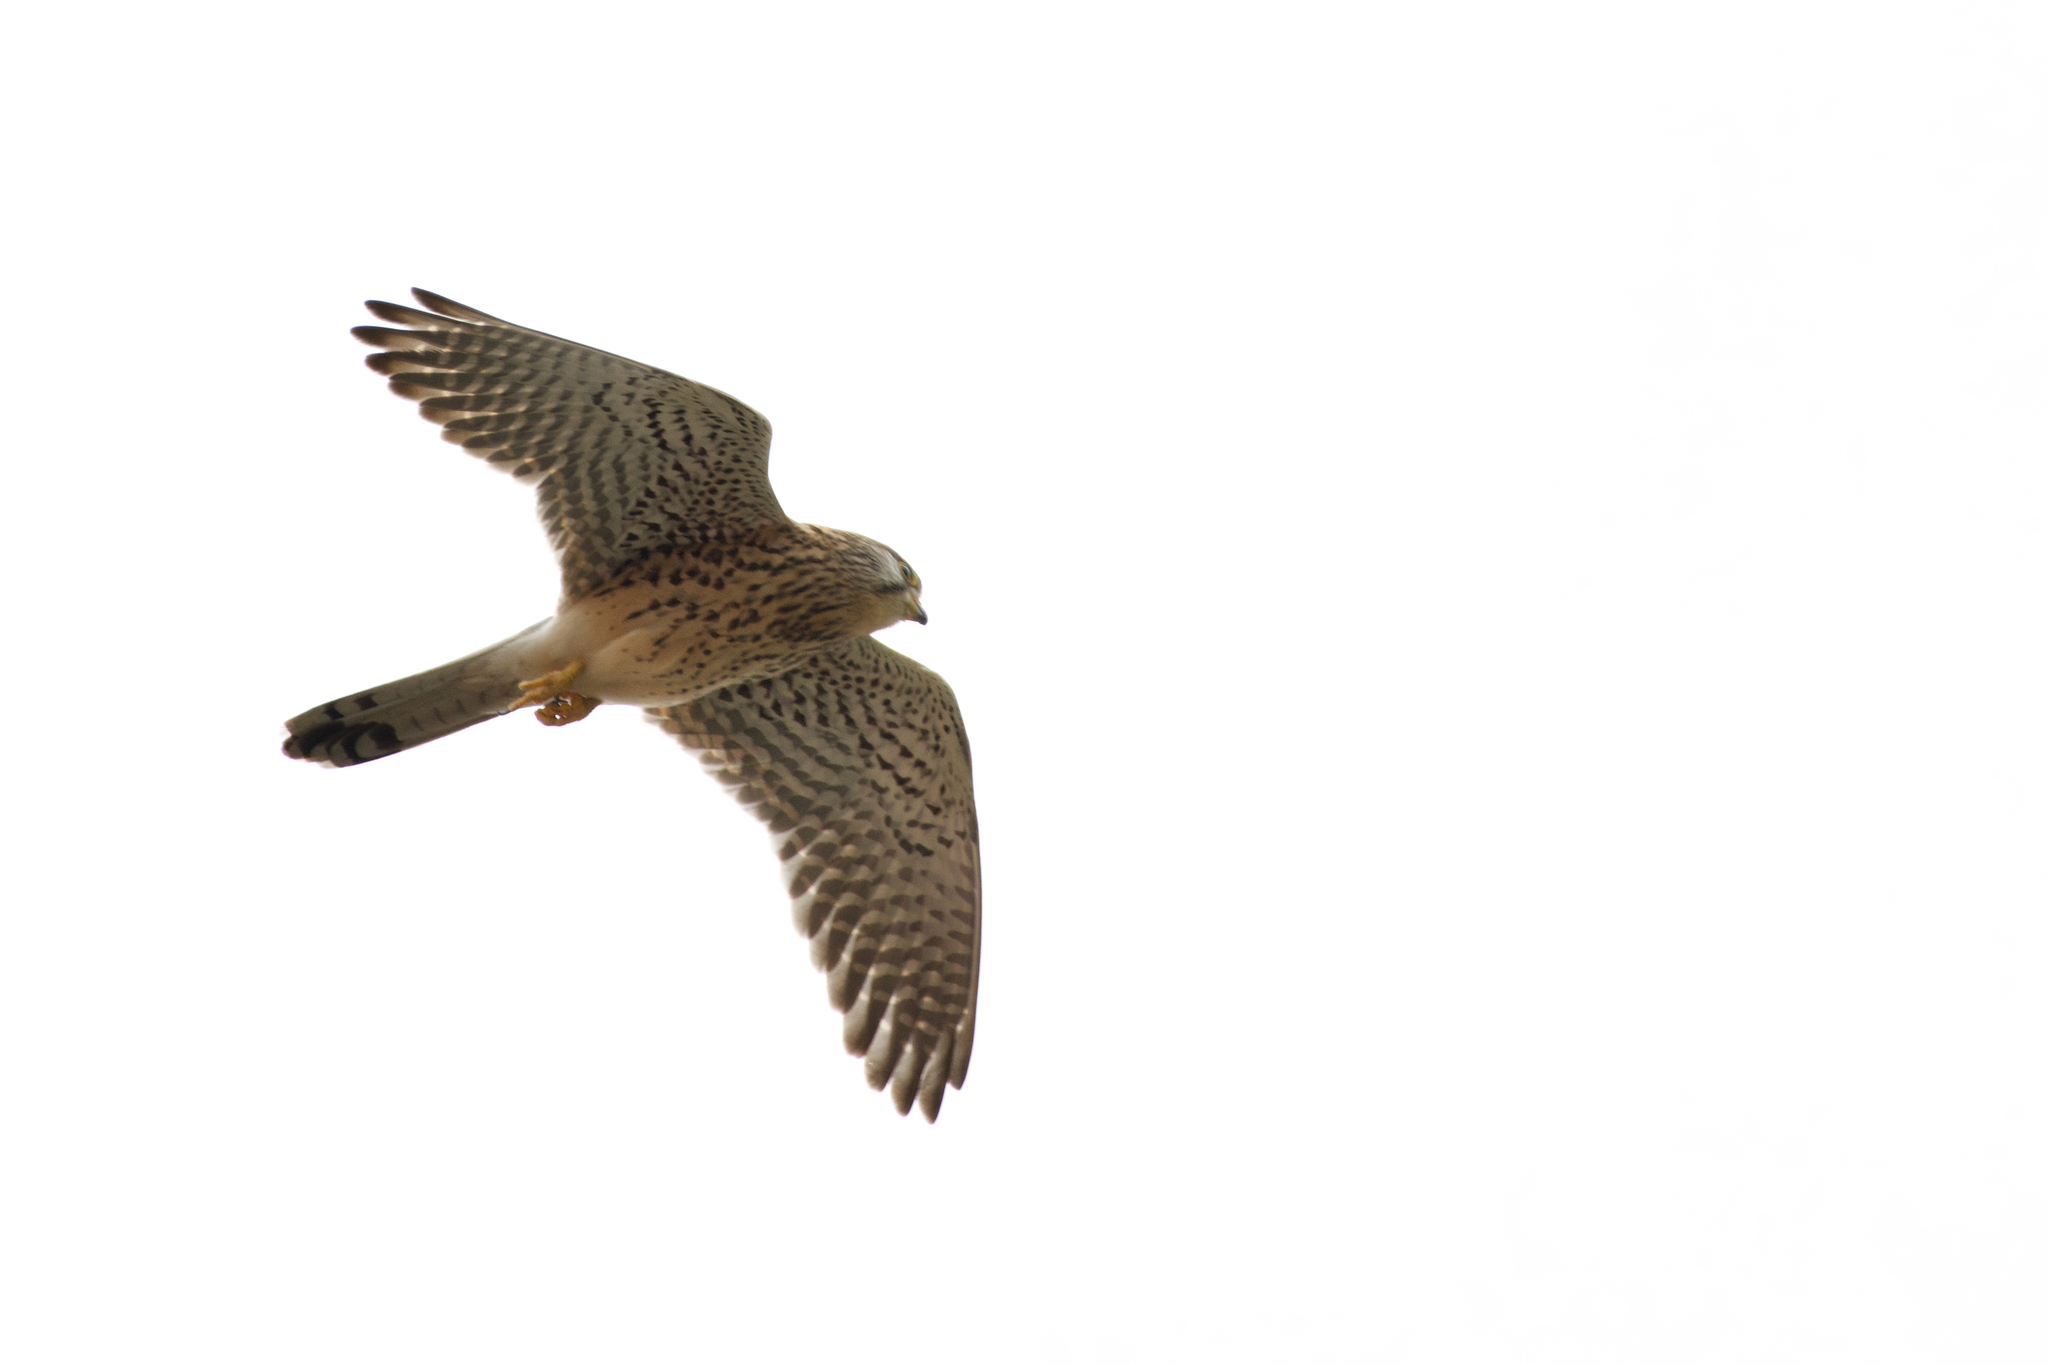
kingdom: Animalia
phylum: Chordata
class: Aves
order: Falconiformes
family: Falconidae
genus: Falco
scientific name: Falco tinnunculus
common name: Common kestrel
